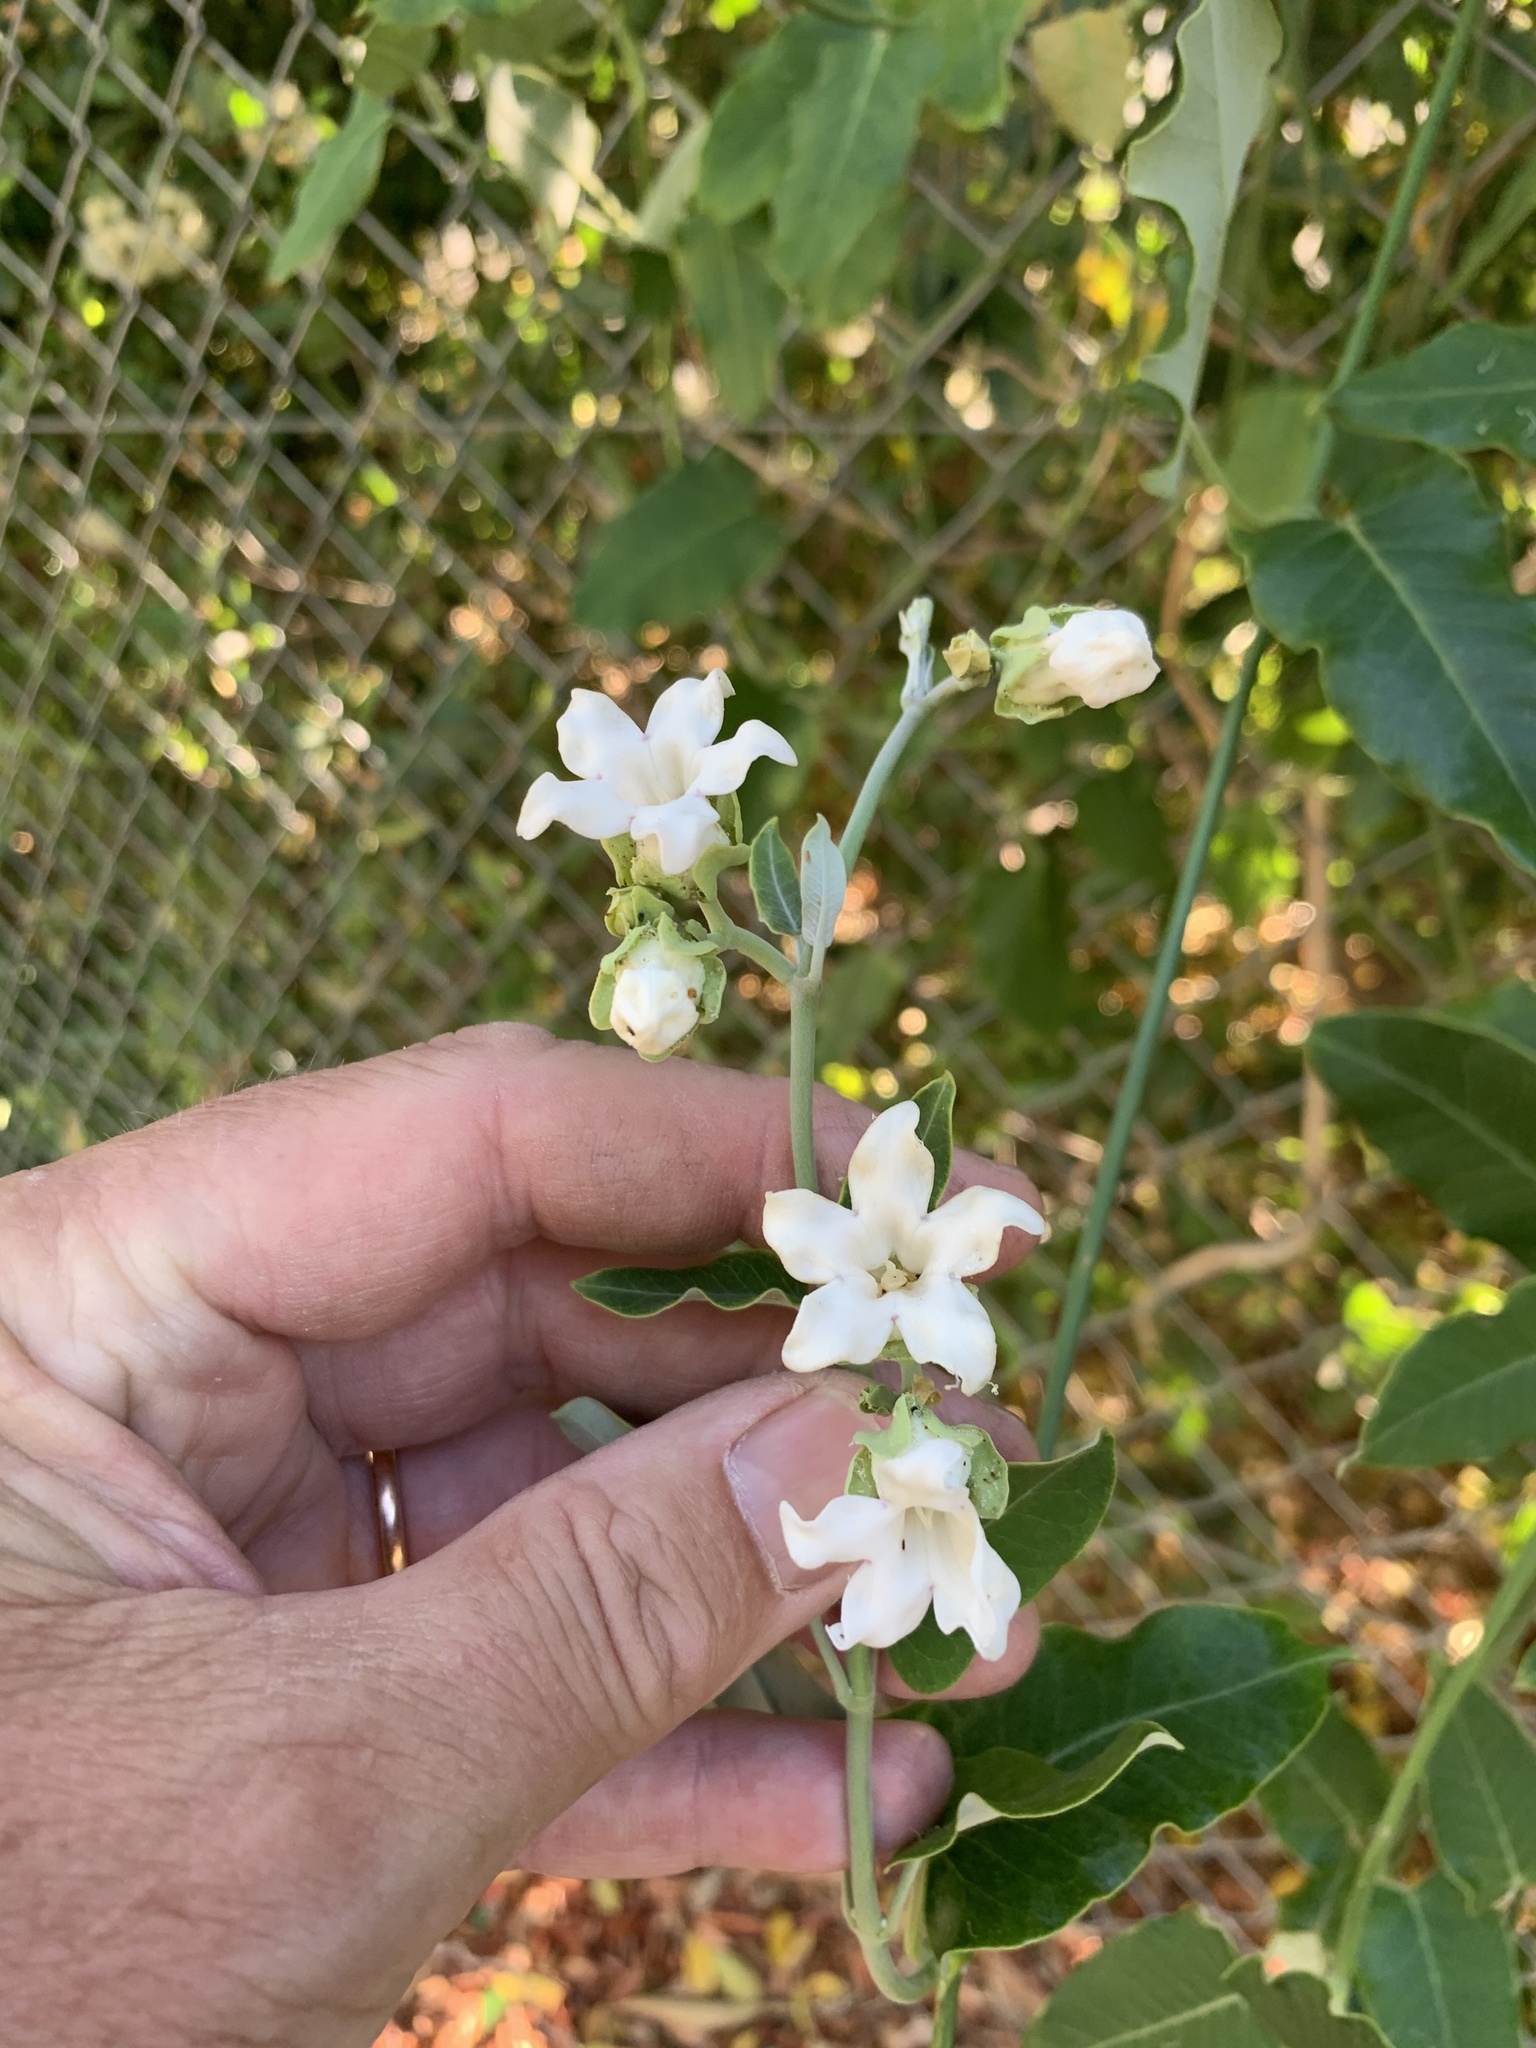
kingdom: Plantae
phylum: Tracheophyta
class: Magnoliopsida
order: Gentianales
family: Apocynaceae
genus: Araujia
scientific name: Araujia sericifera
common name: White bladderflower
